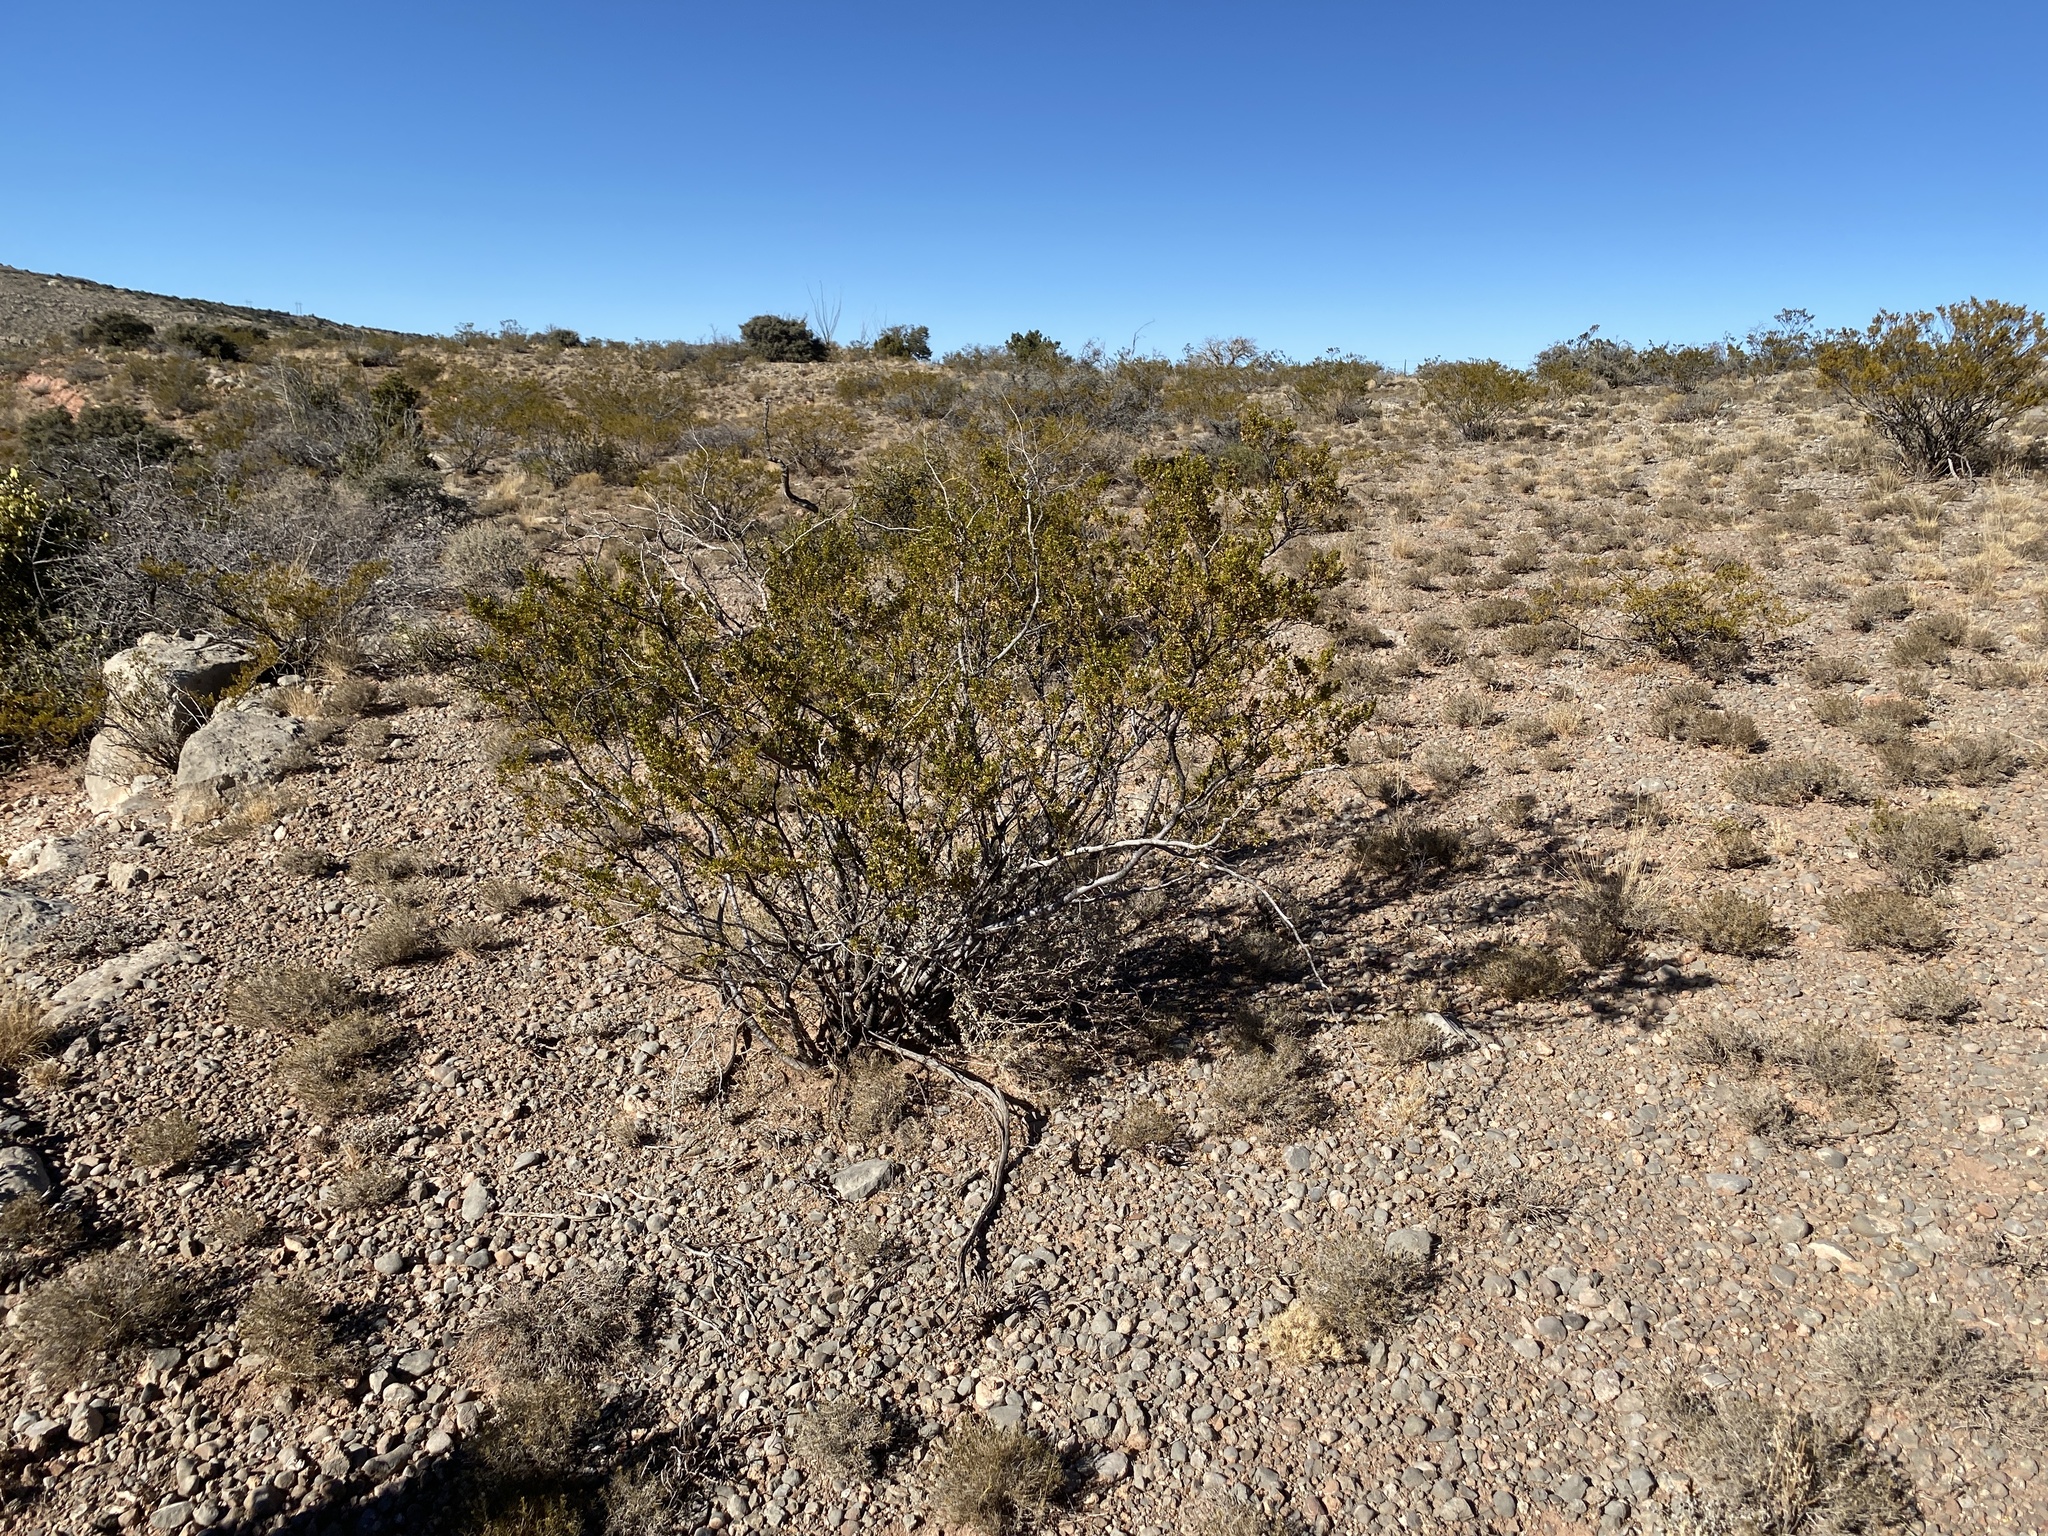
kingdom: Plantae
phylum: Tracheophyta
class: Magnoliopsida
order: Zygophyllales
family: Zygophyllaceae
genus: Larrea
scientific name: Larrea tridentata
